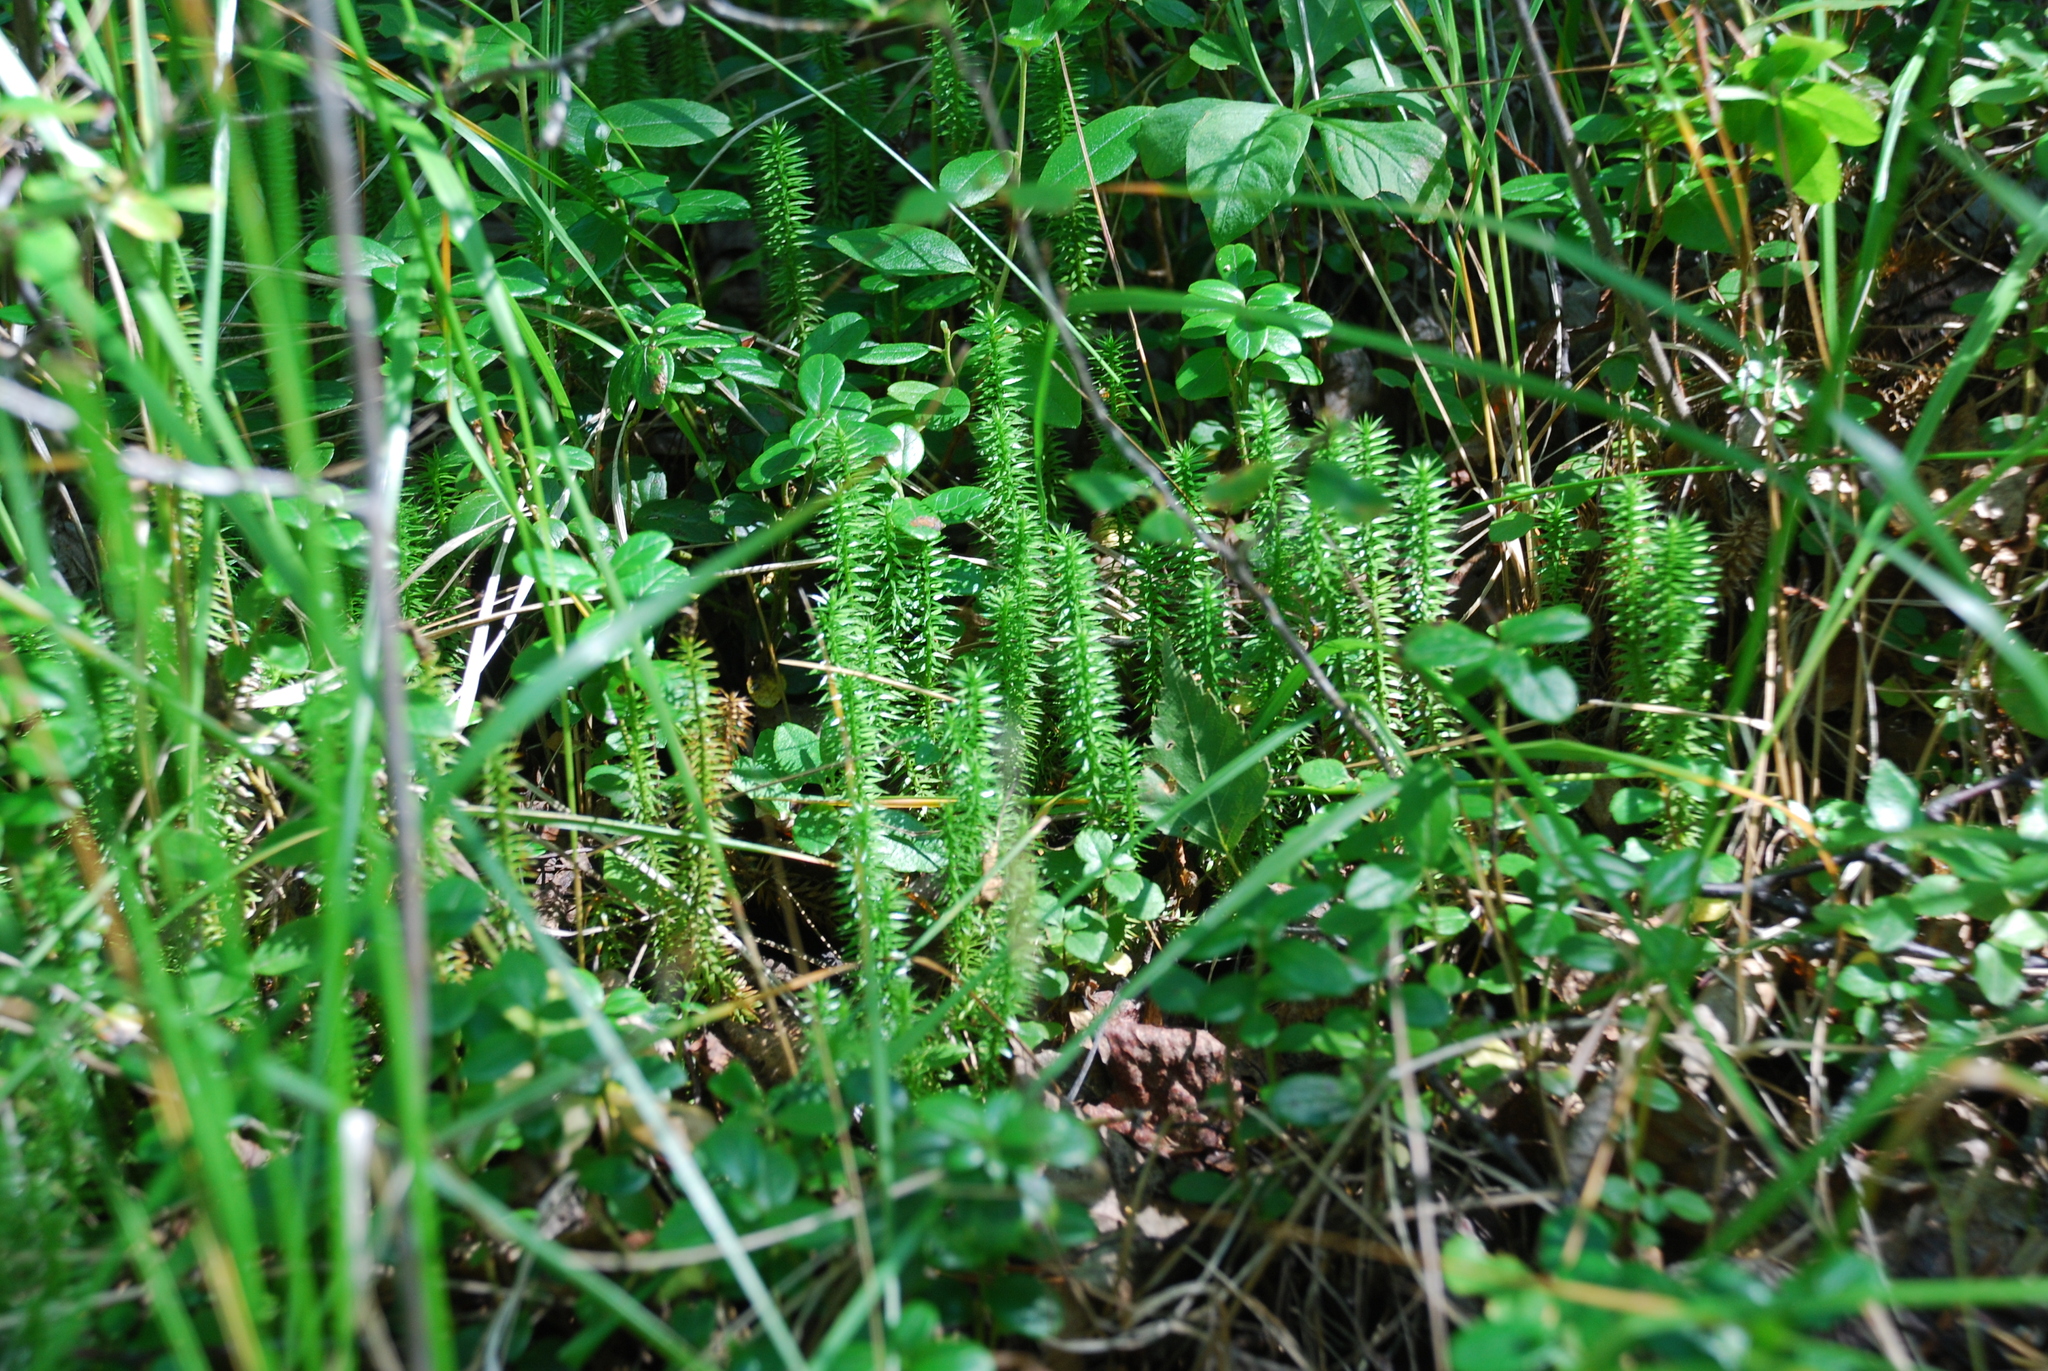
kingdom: Plantae
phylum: Tracheophyta
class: Lycopodiopsida
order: Lycopodiales
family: Lycopodiaceae
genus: Spinulum
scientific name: Spinulum annotinum
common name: Interrupted club-moss
